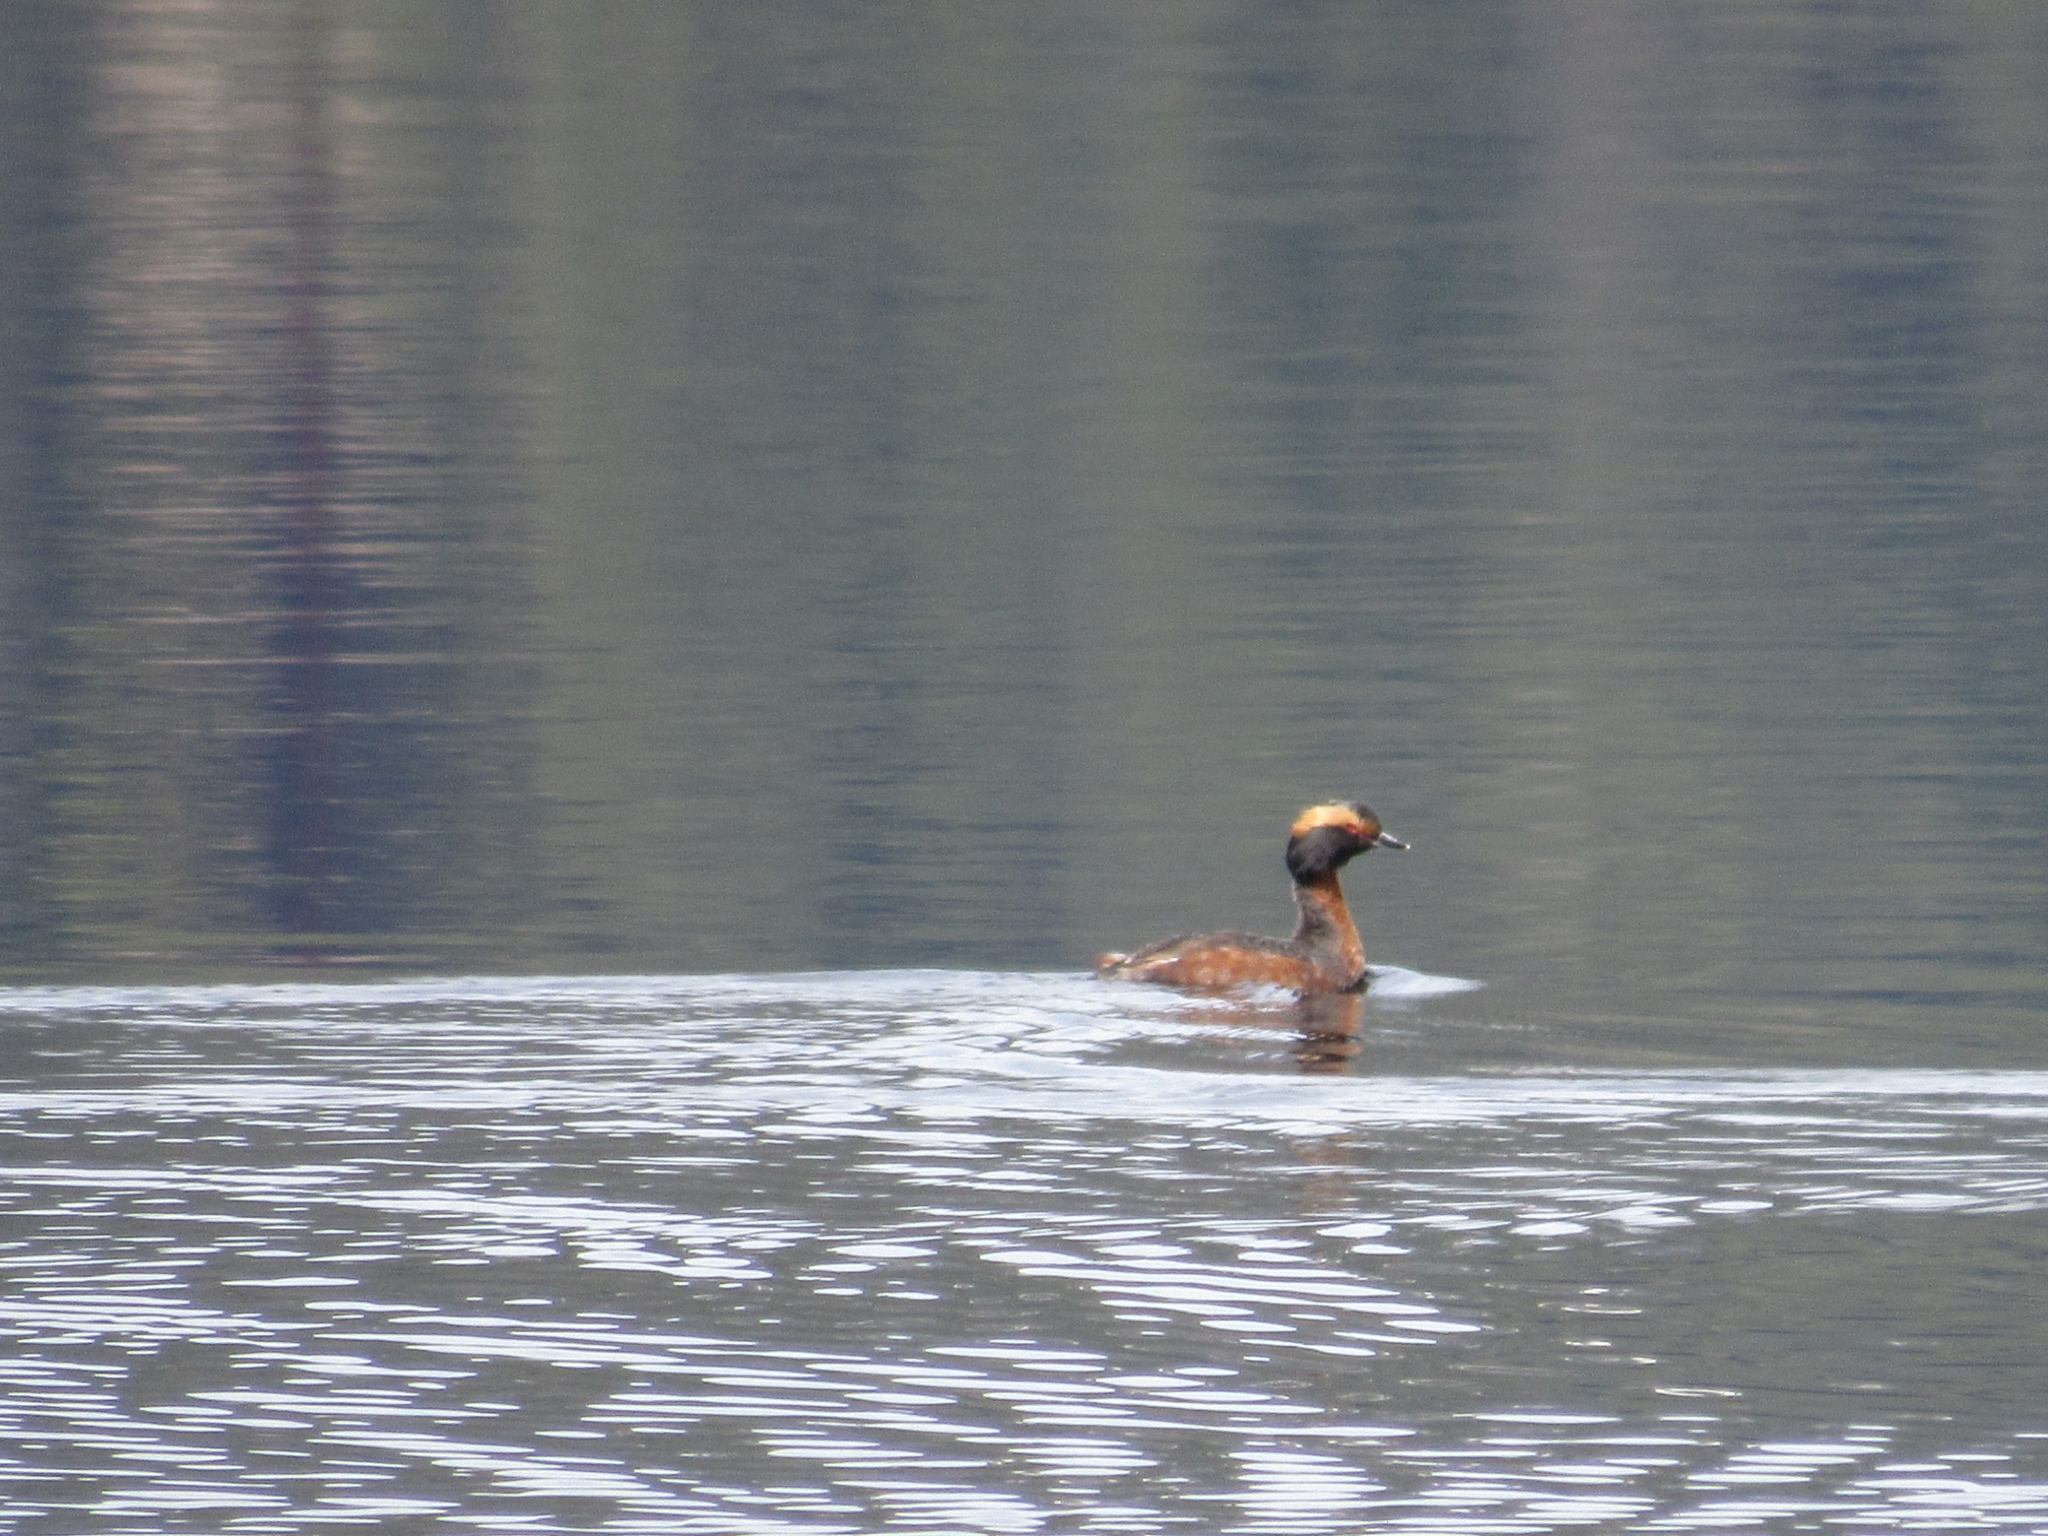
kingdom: Animalia
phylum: Chordata
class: Aves
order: Podicipediformes
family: Podicipedidae
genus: Podiceps
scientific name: Podiceps auritus
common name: Horned grebe
